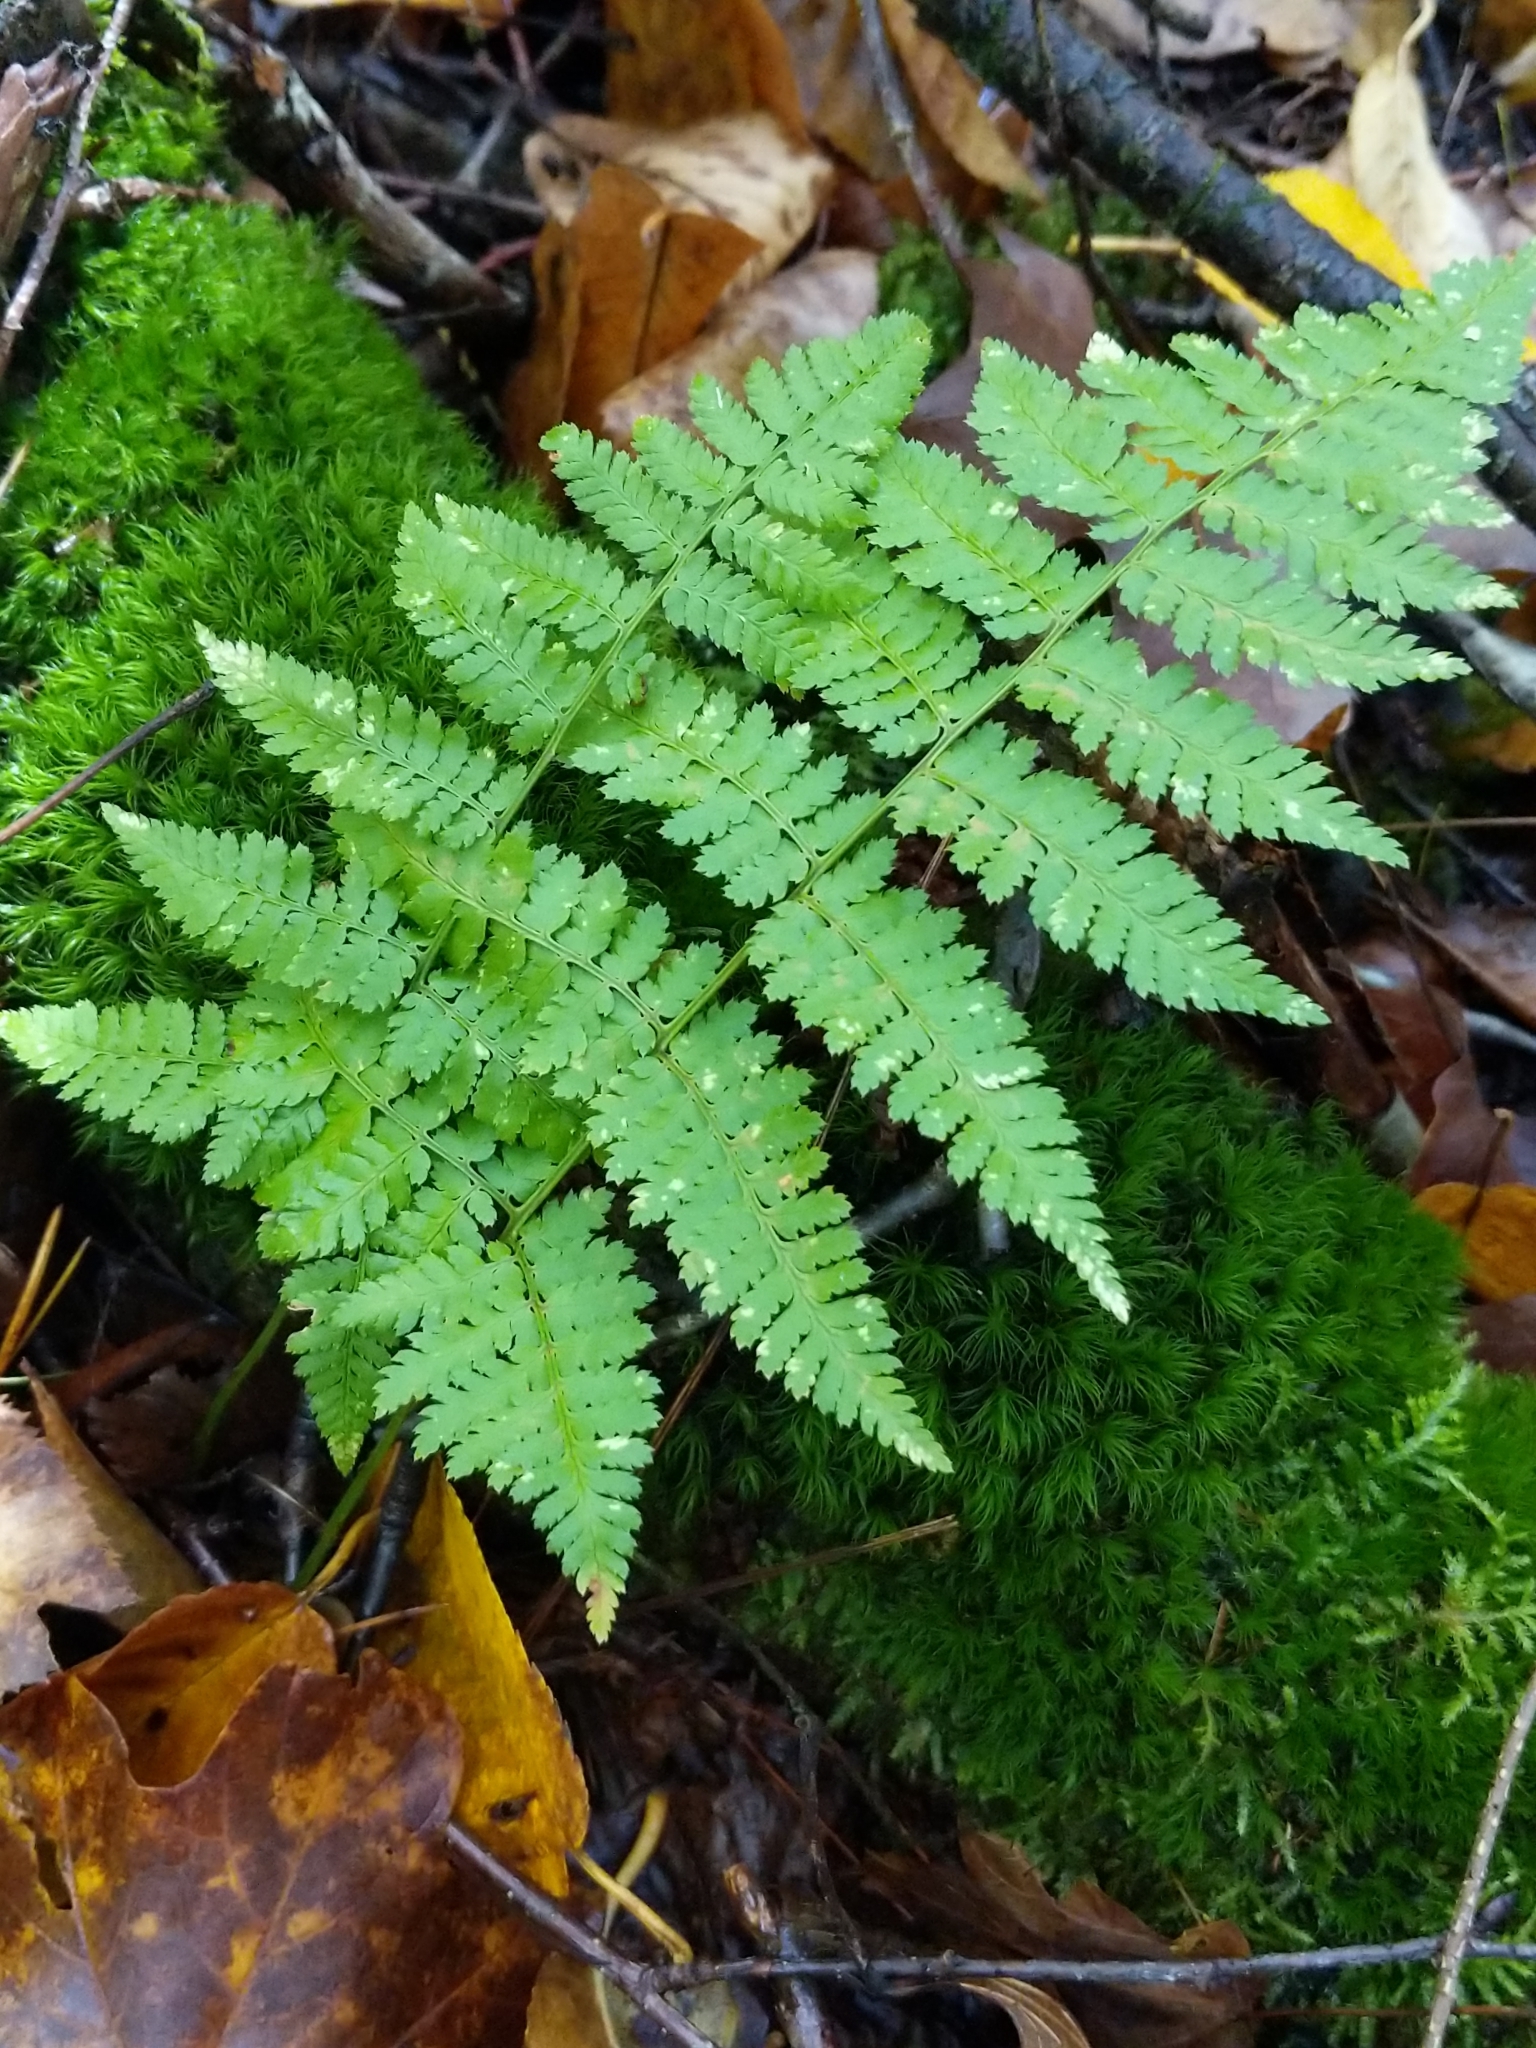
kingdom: Plantae
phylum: Tracheophyta
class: Polypodiopsida
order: Polypodiales
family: Dryopteridaceae
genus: Dryopteris
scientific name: Dryopteris intermedia
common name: Evergreen wood fern
